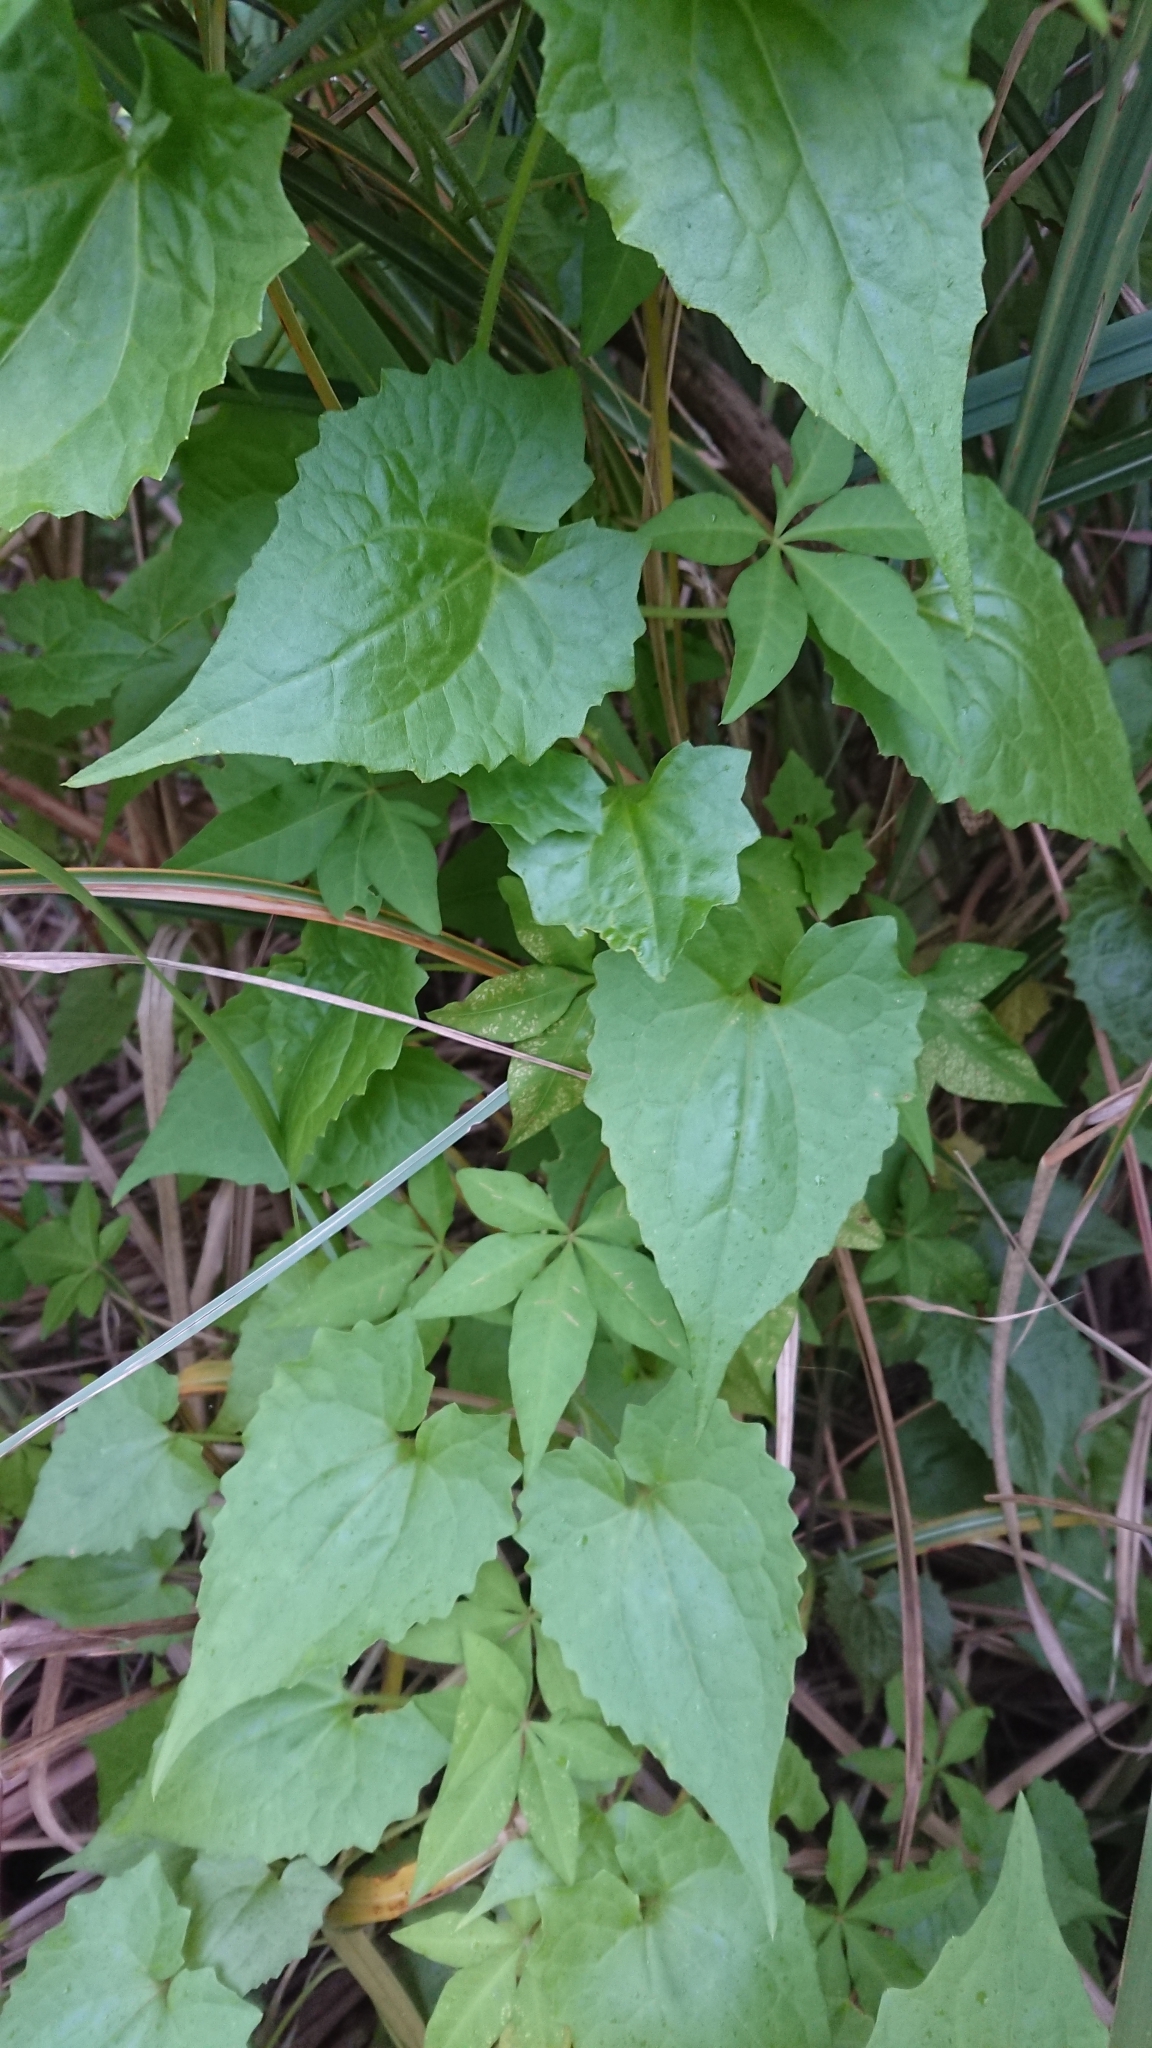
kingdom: Plantae
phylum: Tracheophyta
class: Magnoliopsida
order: Asterales
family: Asteraceae
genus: Mikania
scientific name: Mikania micrantha
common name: Mile-a-minute
